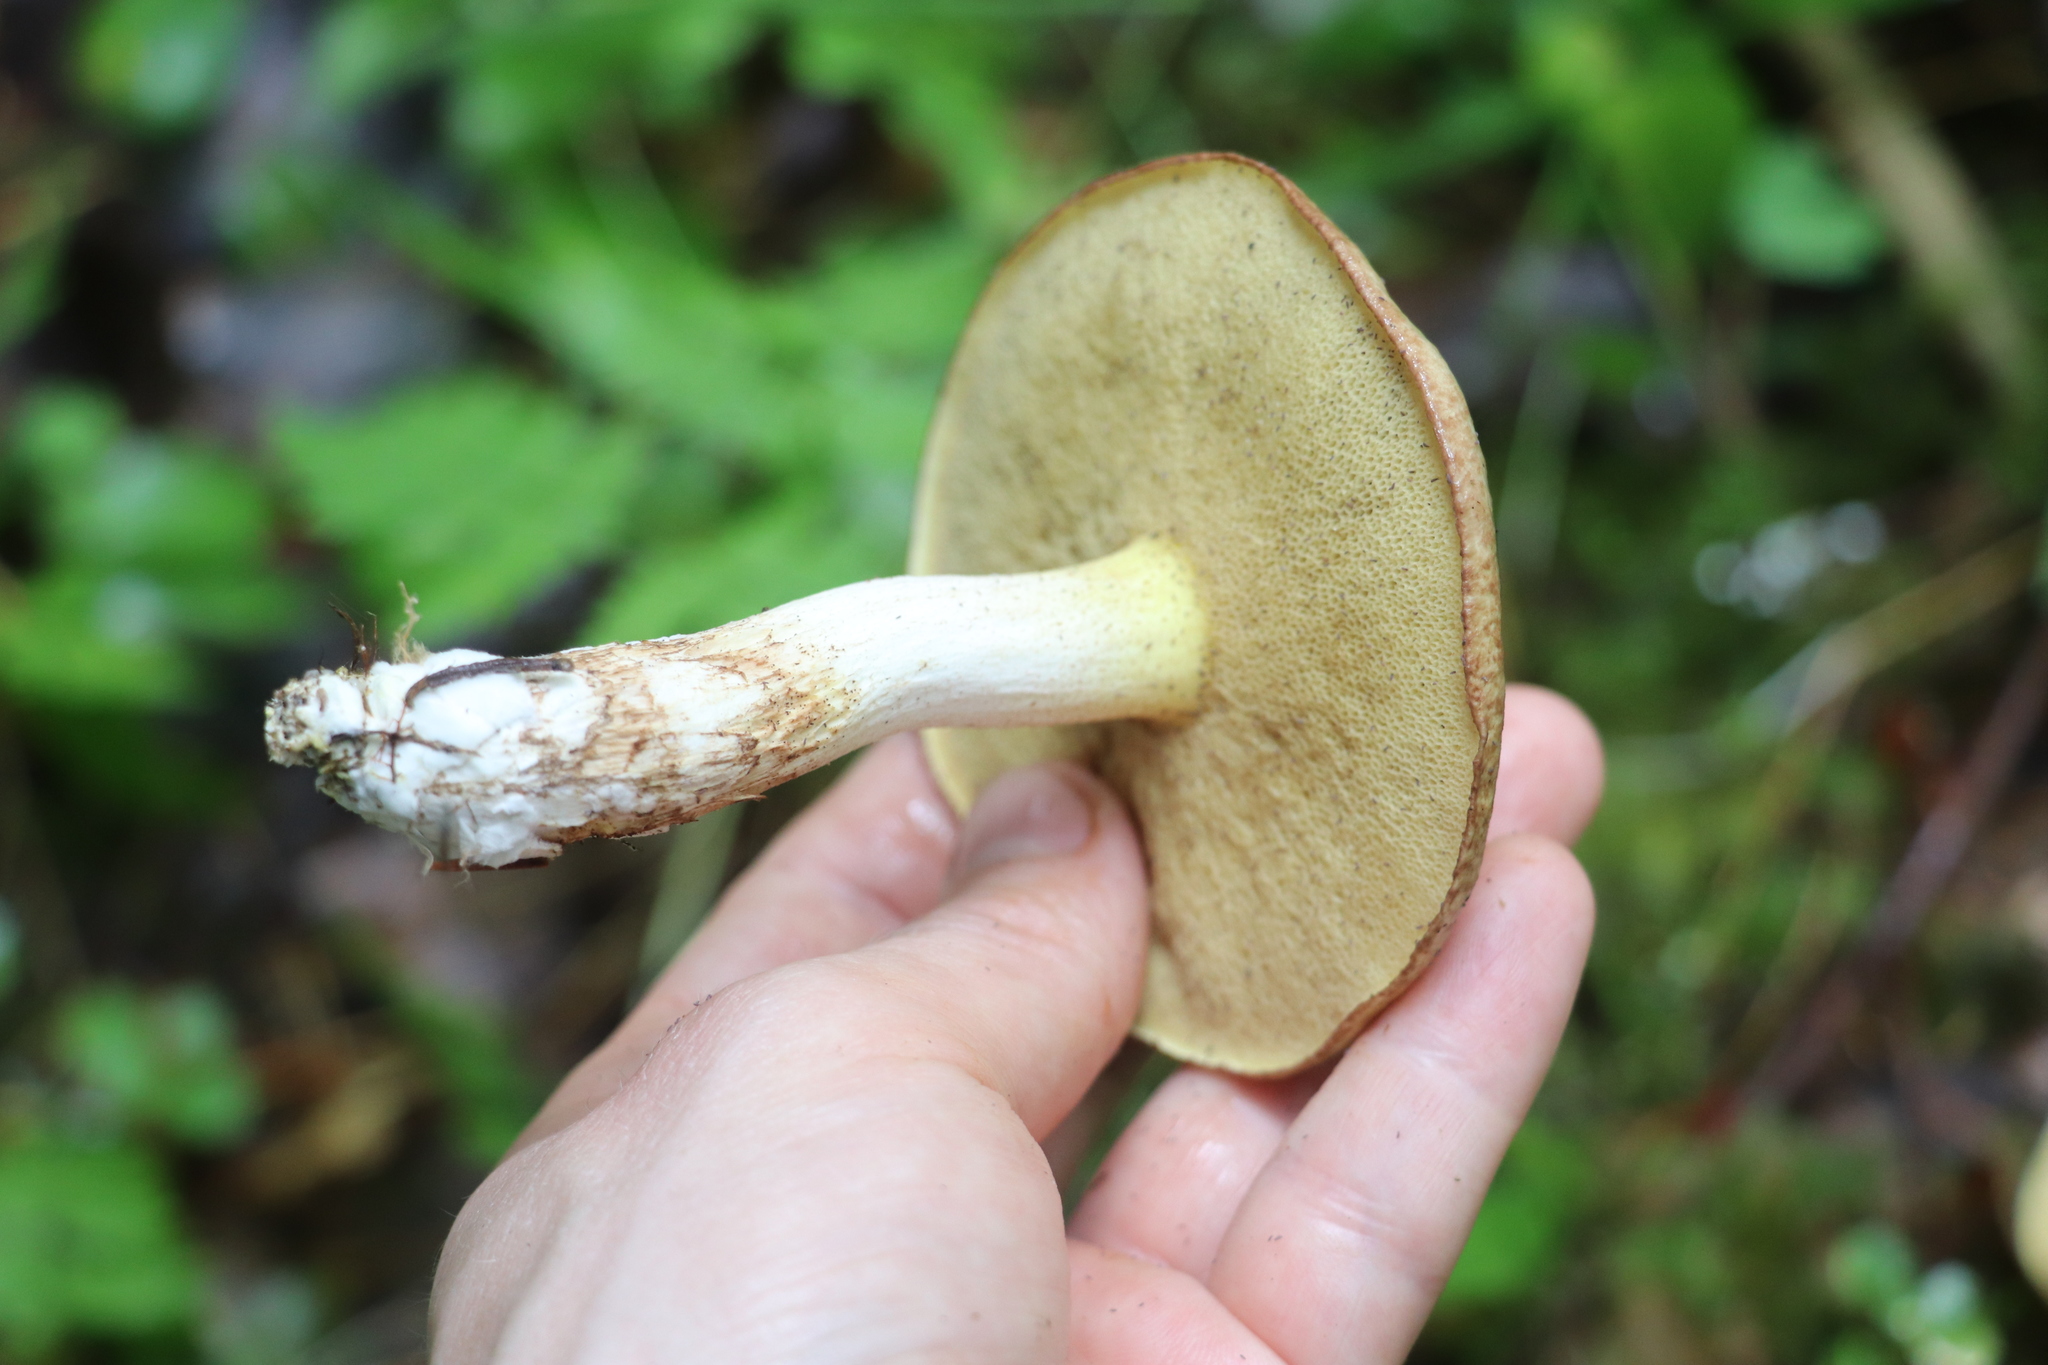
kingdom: Fungi
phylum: Basidiomycota
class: Agaricomycetes
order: Boletales
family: Suillaceae
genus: Suillus
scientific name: Suillus placidus
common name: Slippery white bolete
